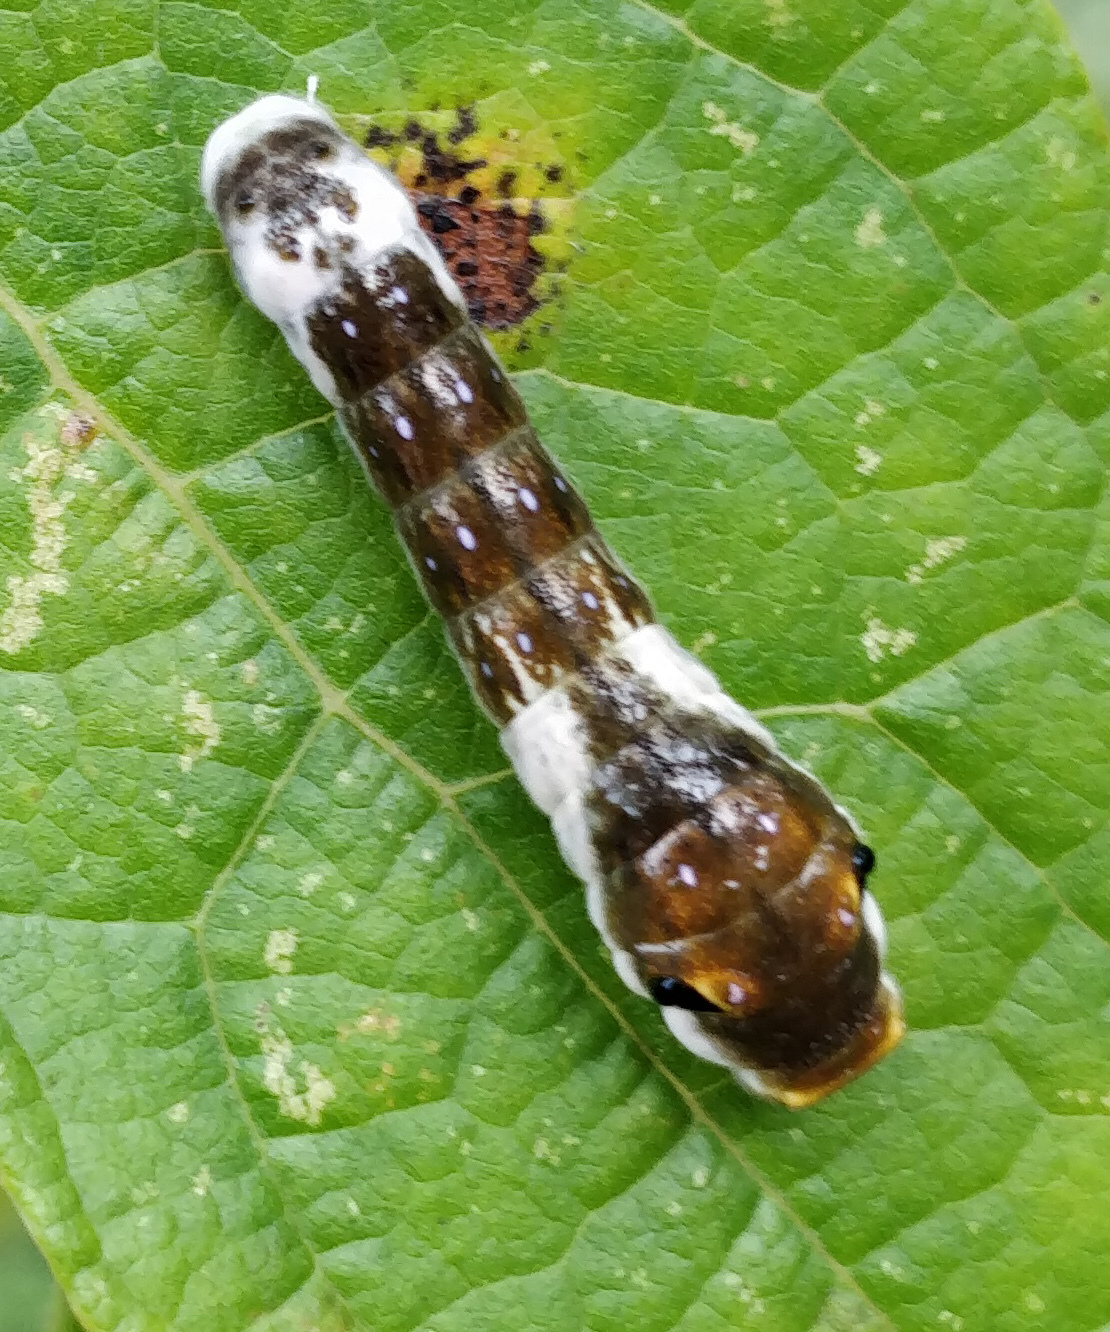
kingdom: Animalia
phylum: Arthropoda
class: Insecta
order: Lepidoptera
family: Papilionidae
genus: Papilio
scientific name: Papilio troilus
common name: Spicebush swallowtail
